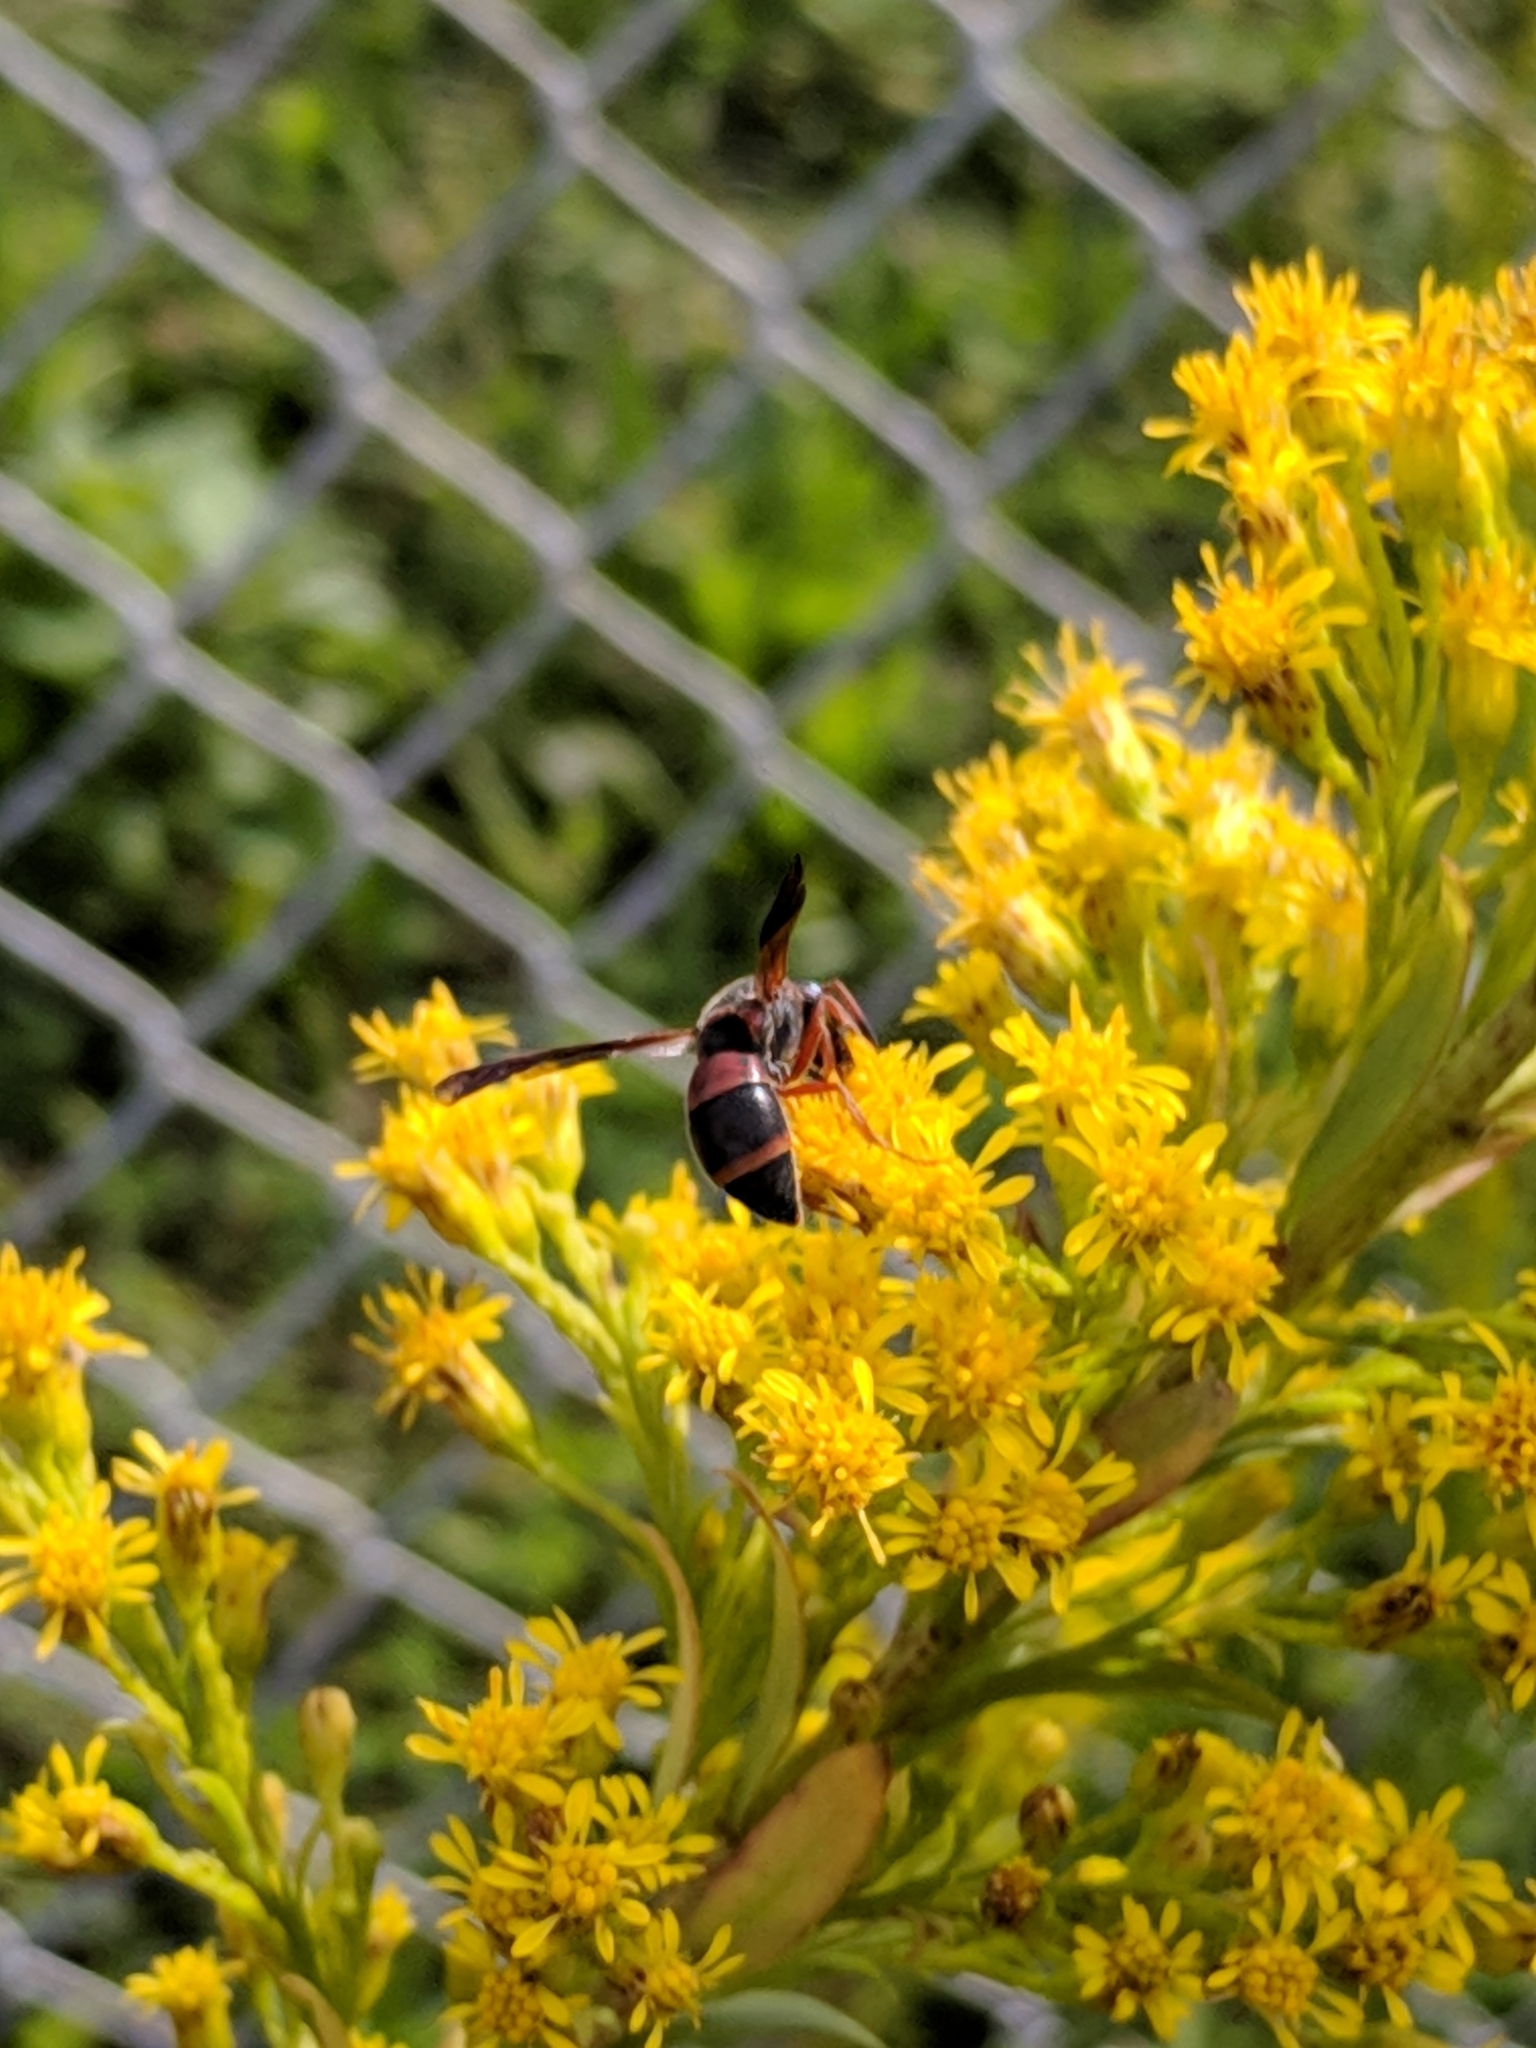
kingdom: Animalia
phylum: Arthropoda
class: Insecta
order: Hymenoptera
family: Eumenidae
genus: Pachodynerus
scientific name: Pachodynerus erynnis
